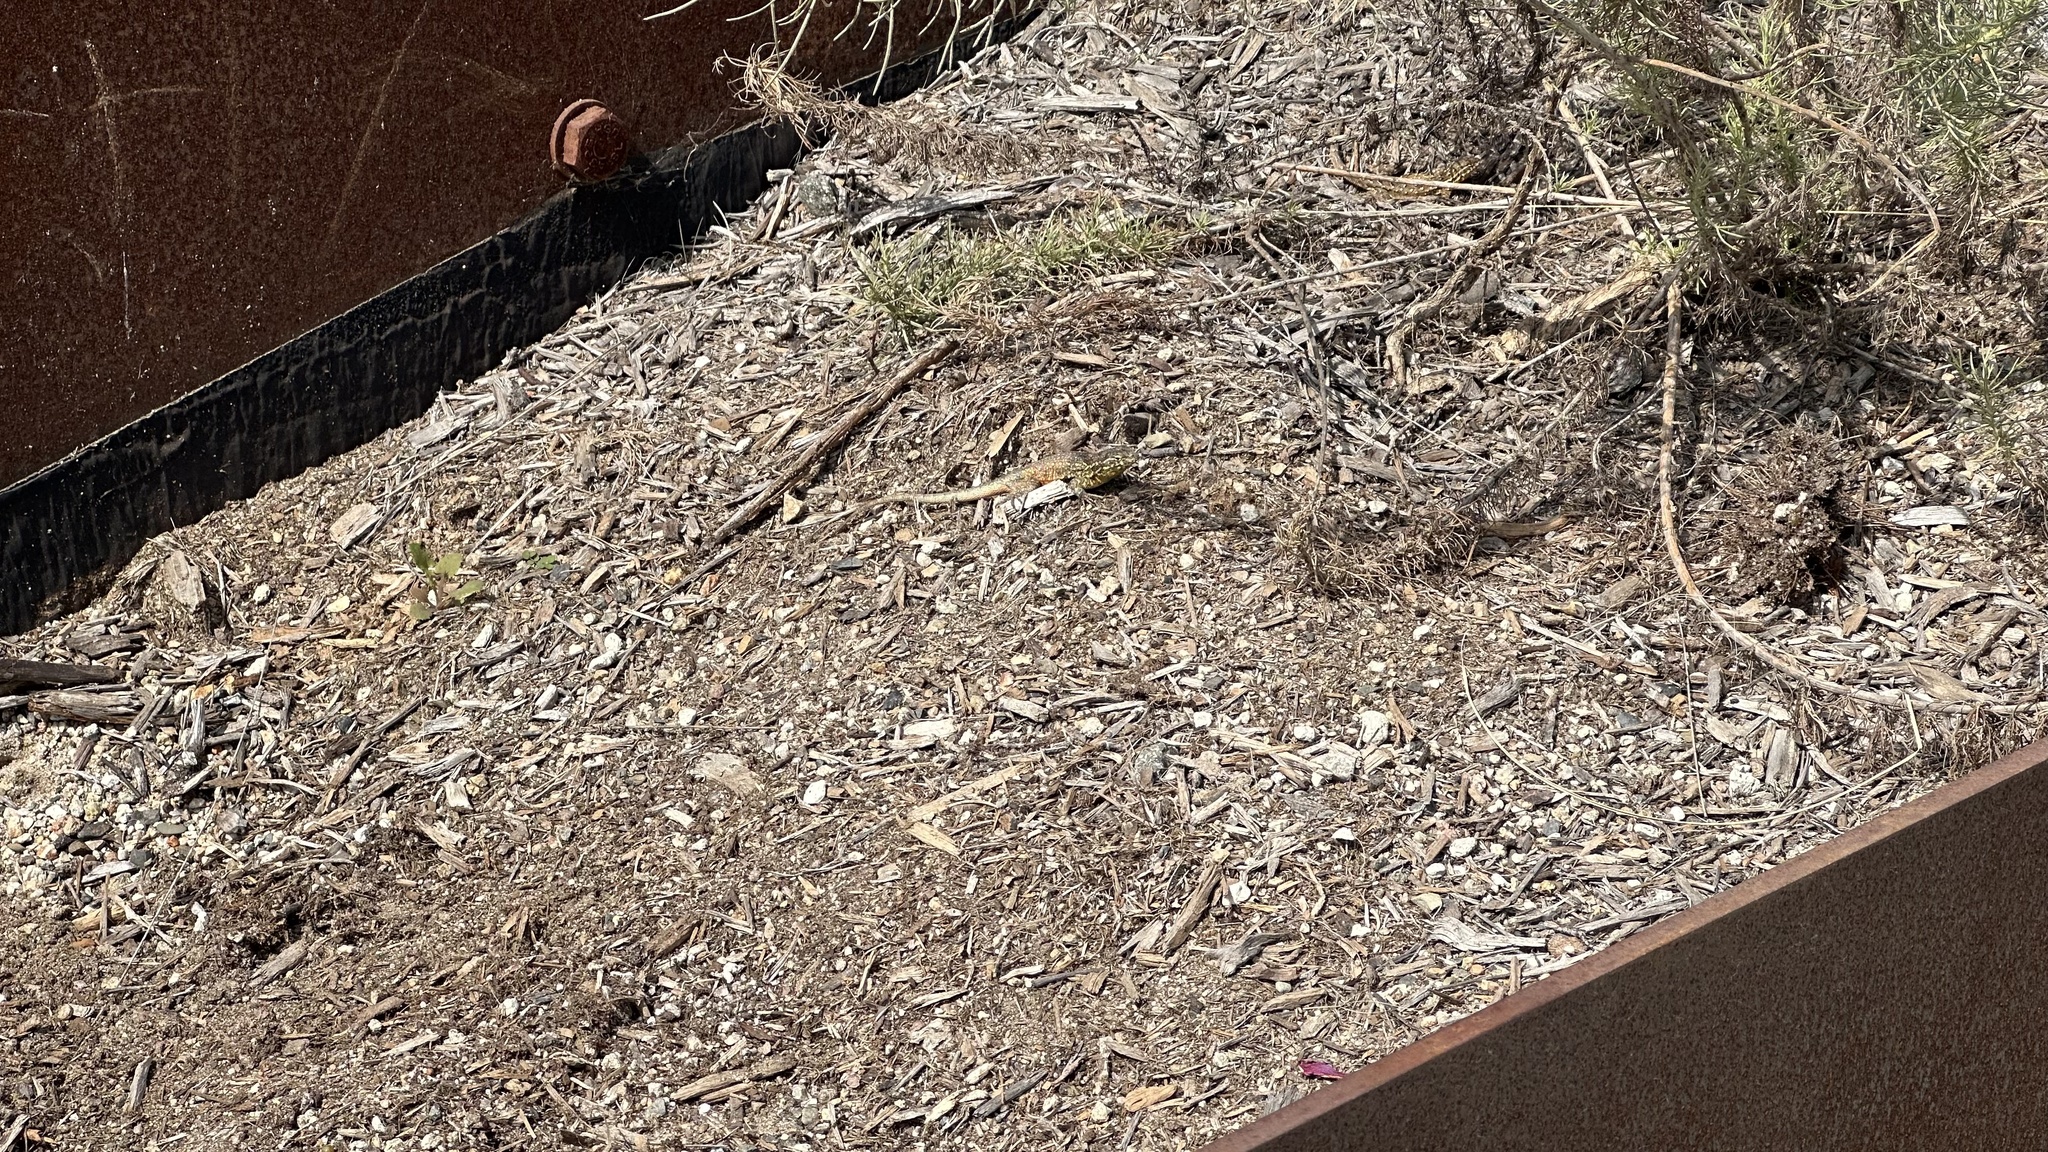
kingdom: Animalia
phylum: Chordata
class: Squamata
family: Phrynosomatidae
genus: Uta
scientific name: Uta stansburiana
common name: Side-blotched lizard
